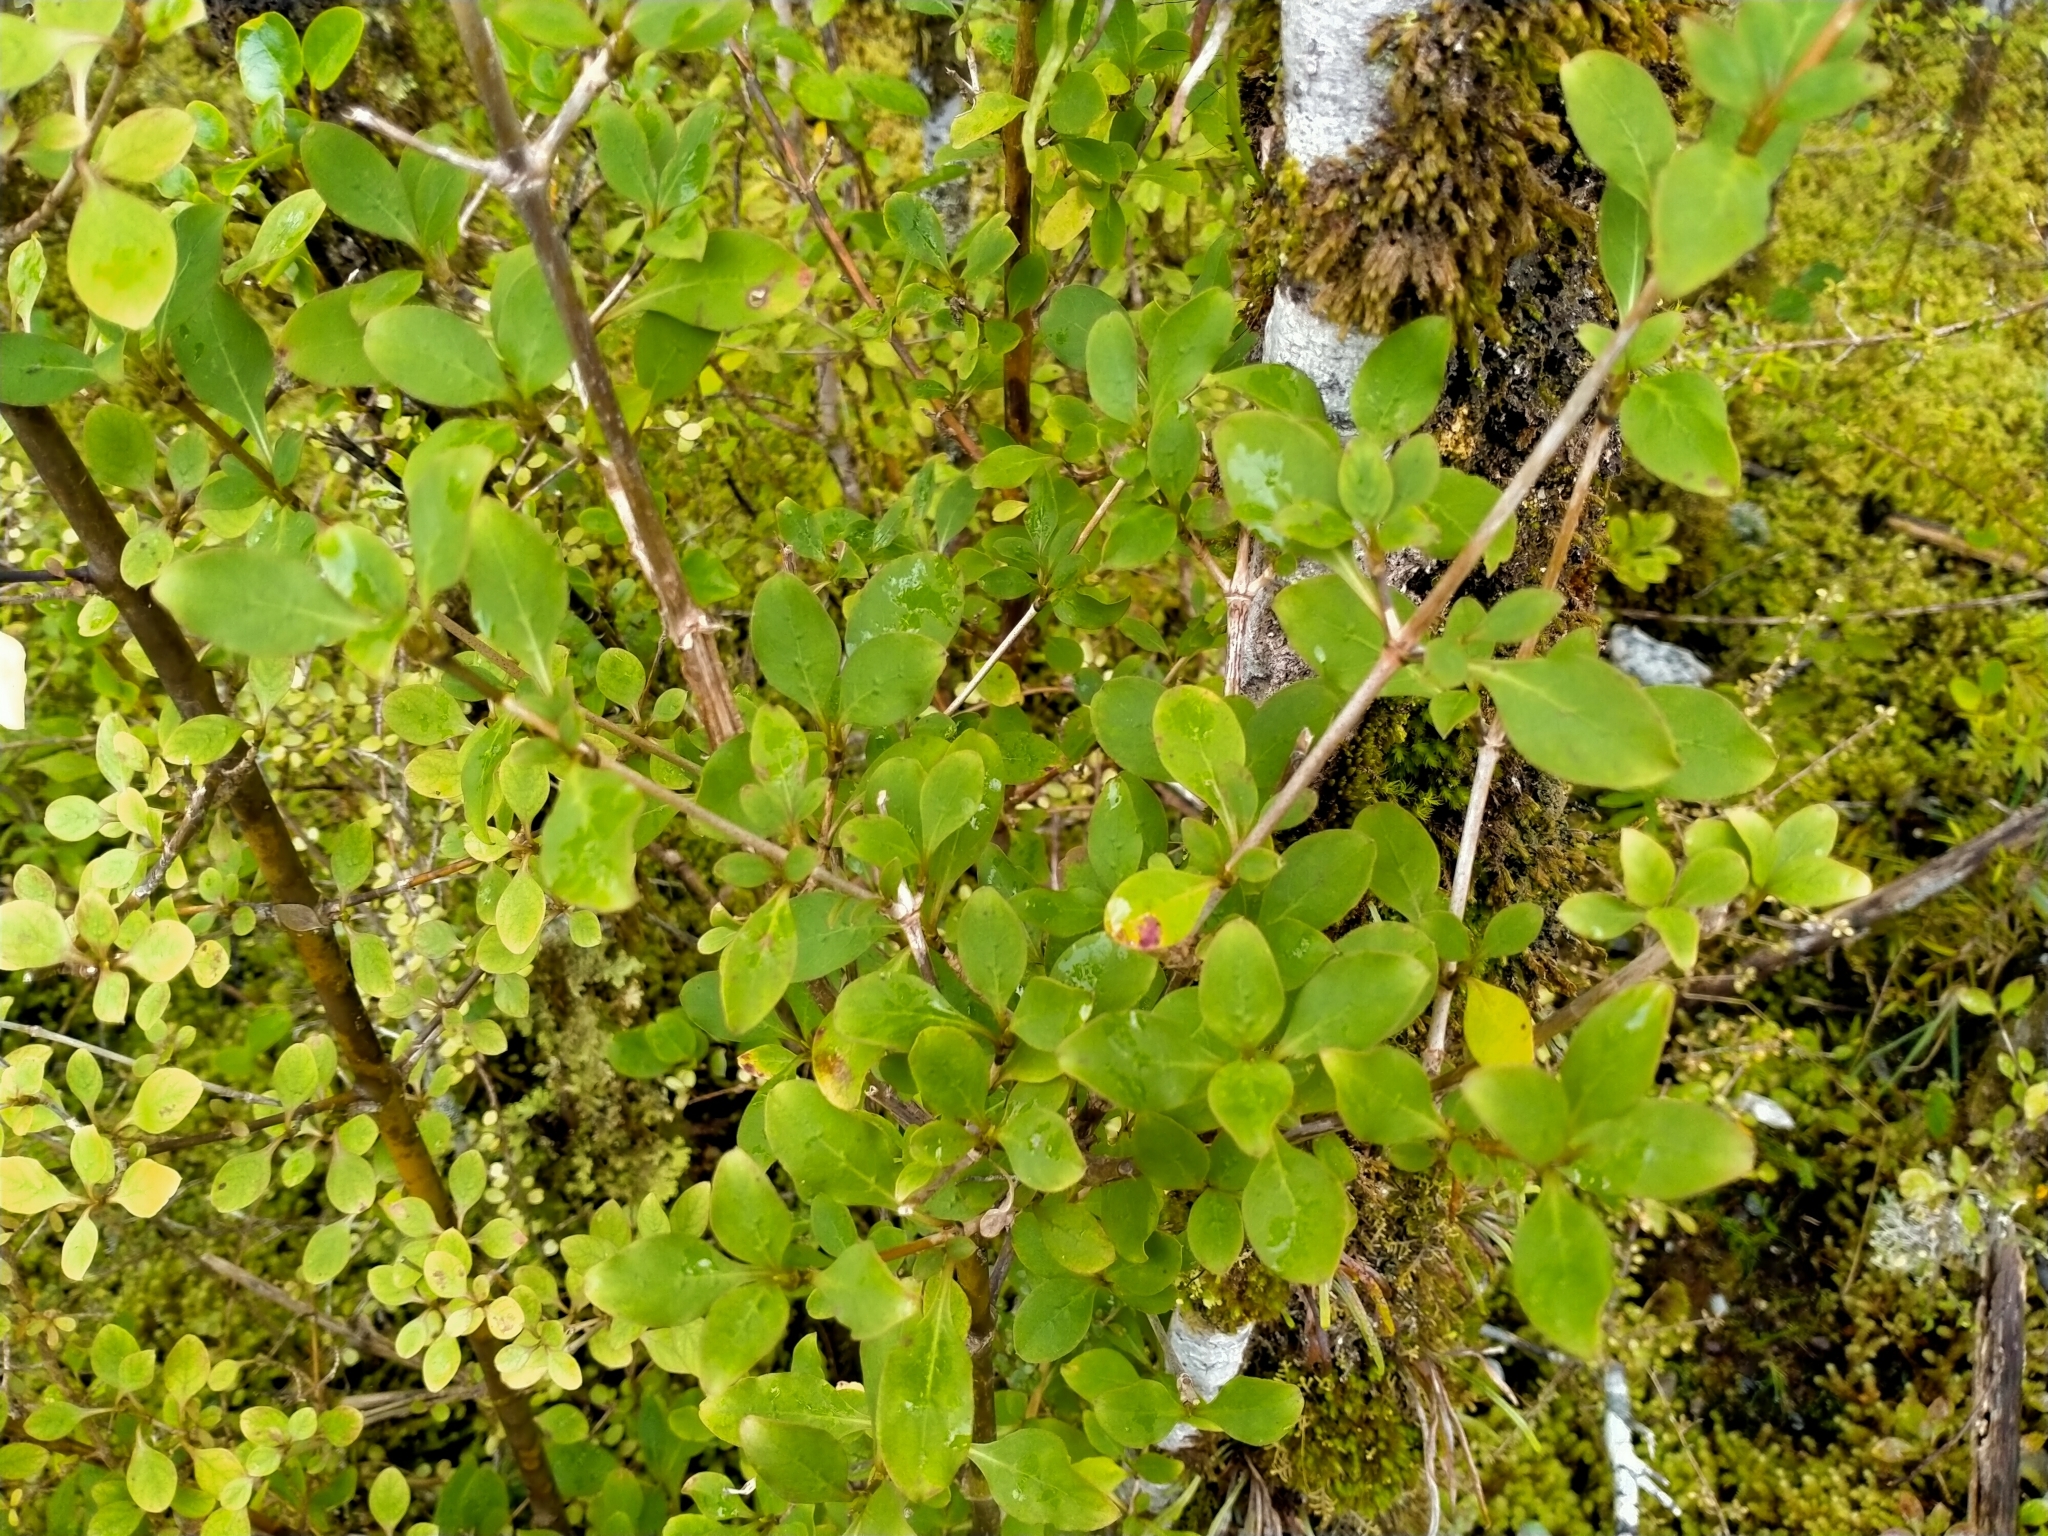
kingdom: Plantae
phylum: Tracheophyta
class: Magnoliopsida
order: Gentianales
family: Rubiaceae
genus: Coprosma
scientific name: Coprosma foetidissima
